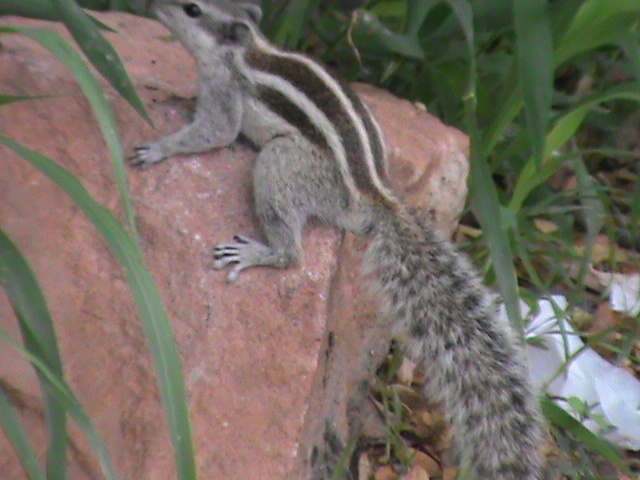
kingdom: Animalia
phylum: Chordata
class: Mammalia
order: Rodentia
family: Sciuridae
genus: Funambulus
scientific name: Funambulus pennantii
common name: Northern palm squirrel
